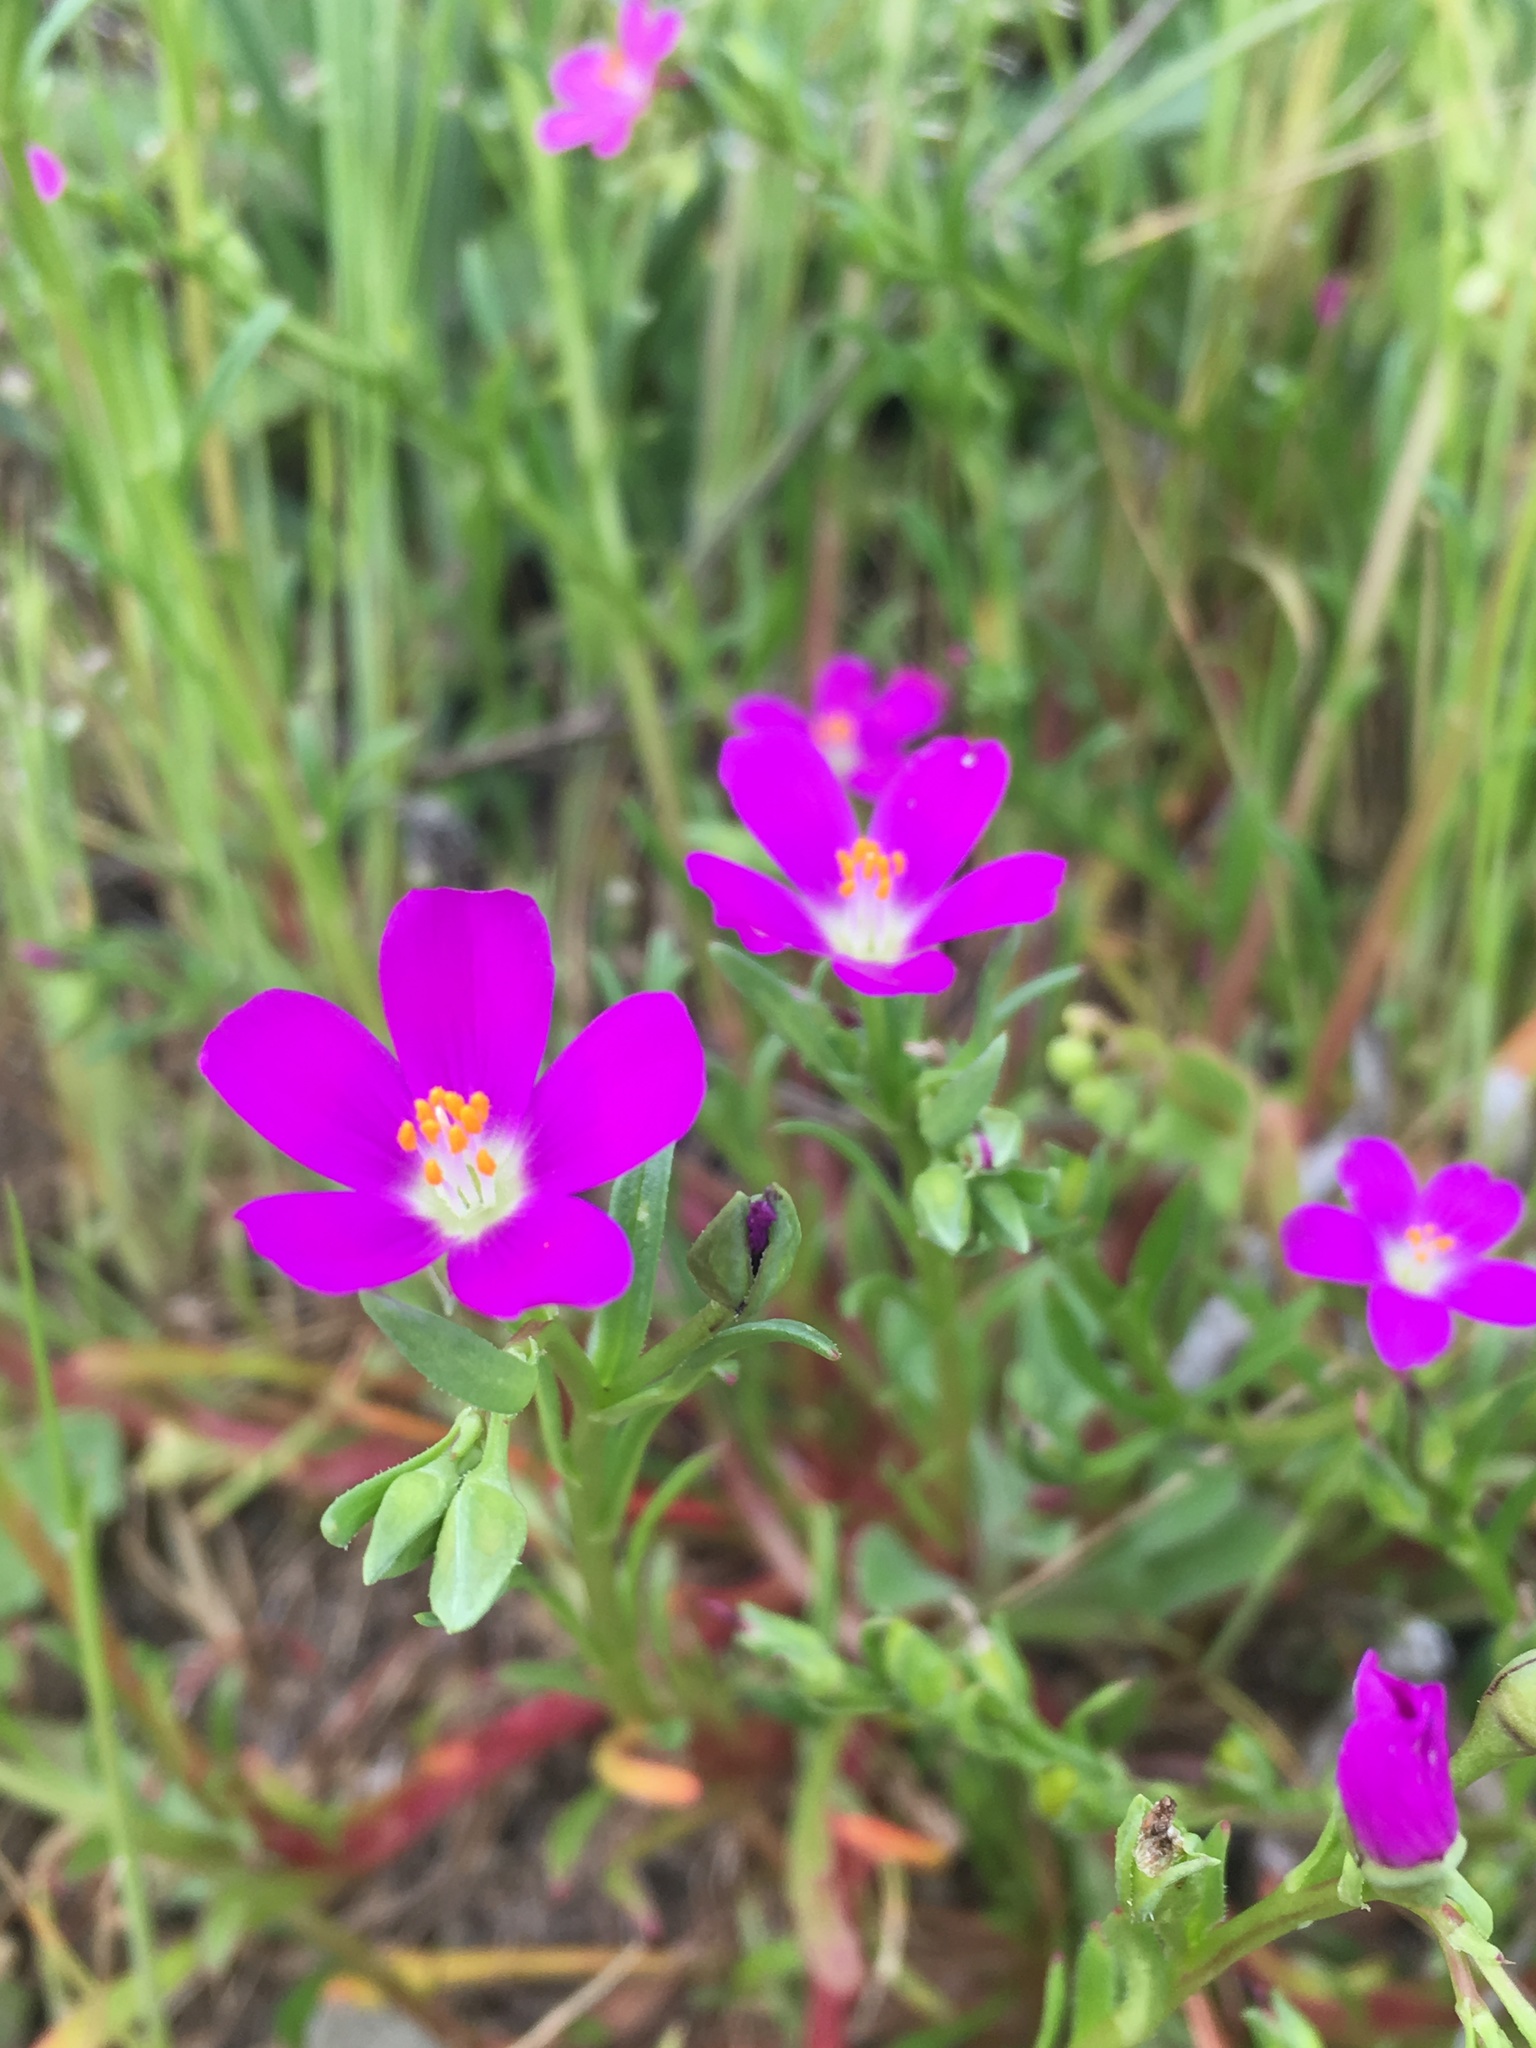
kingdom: Plantae
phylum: Tracheophyta
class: Magnoliopsida
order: Caryophyllales
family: Montiaceae
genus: Calandrinia
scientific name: Calandrinia menziesii
